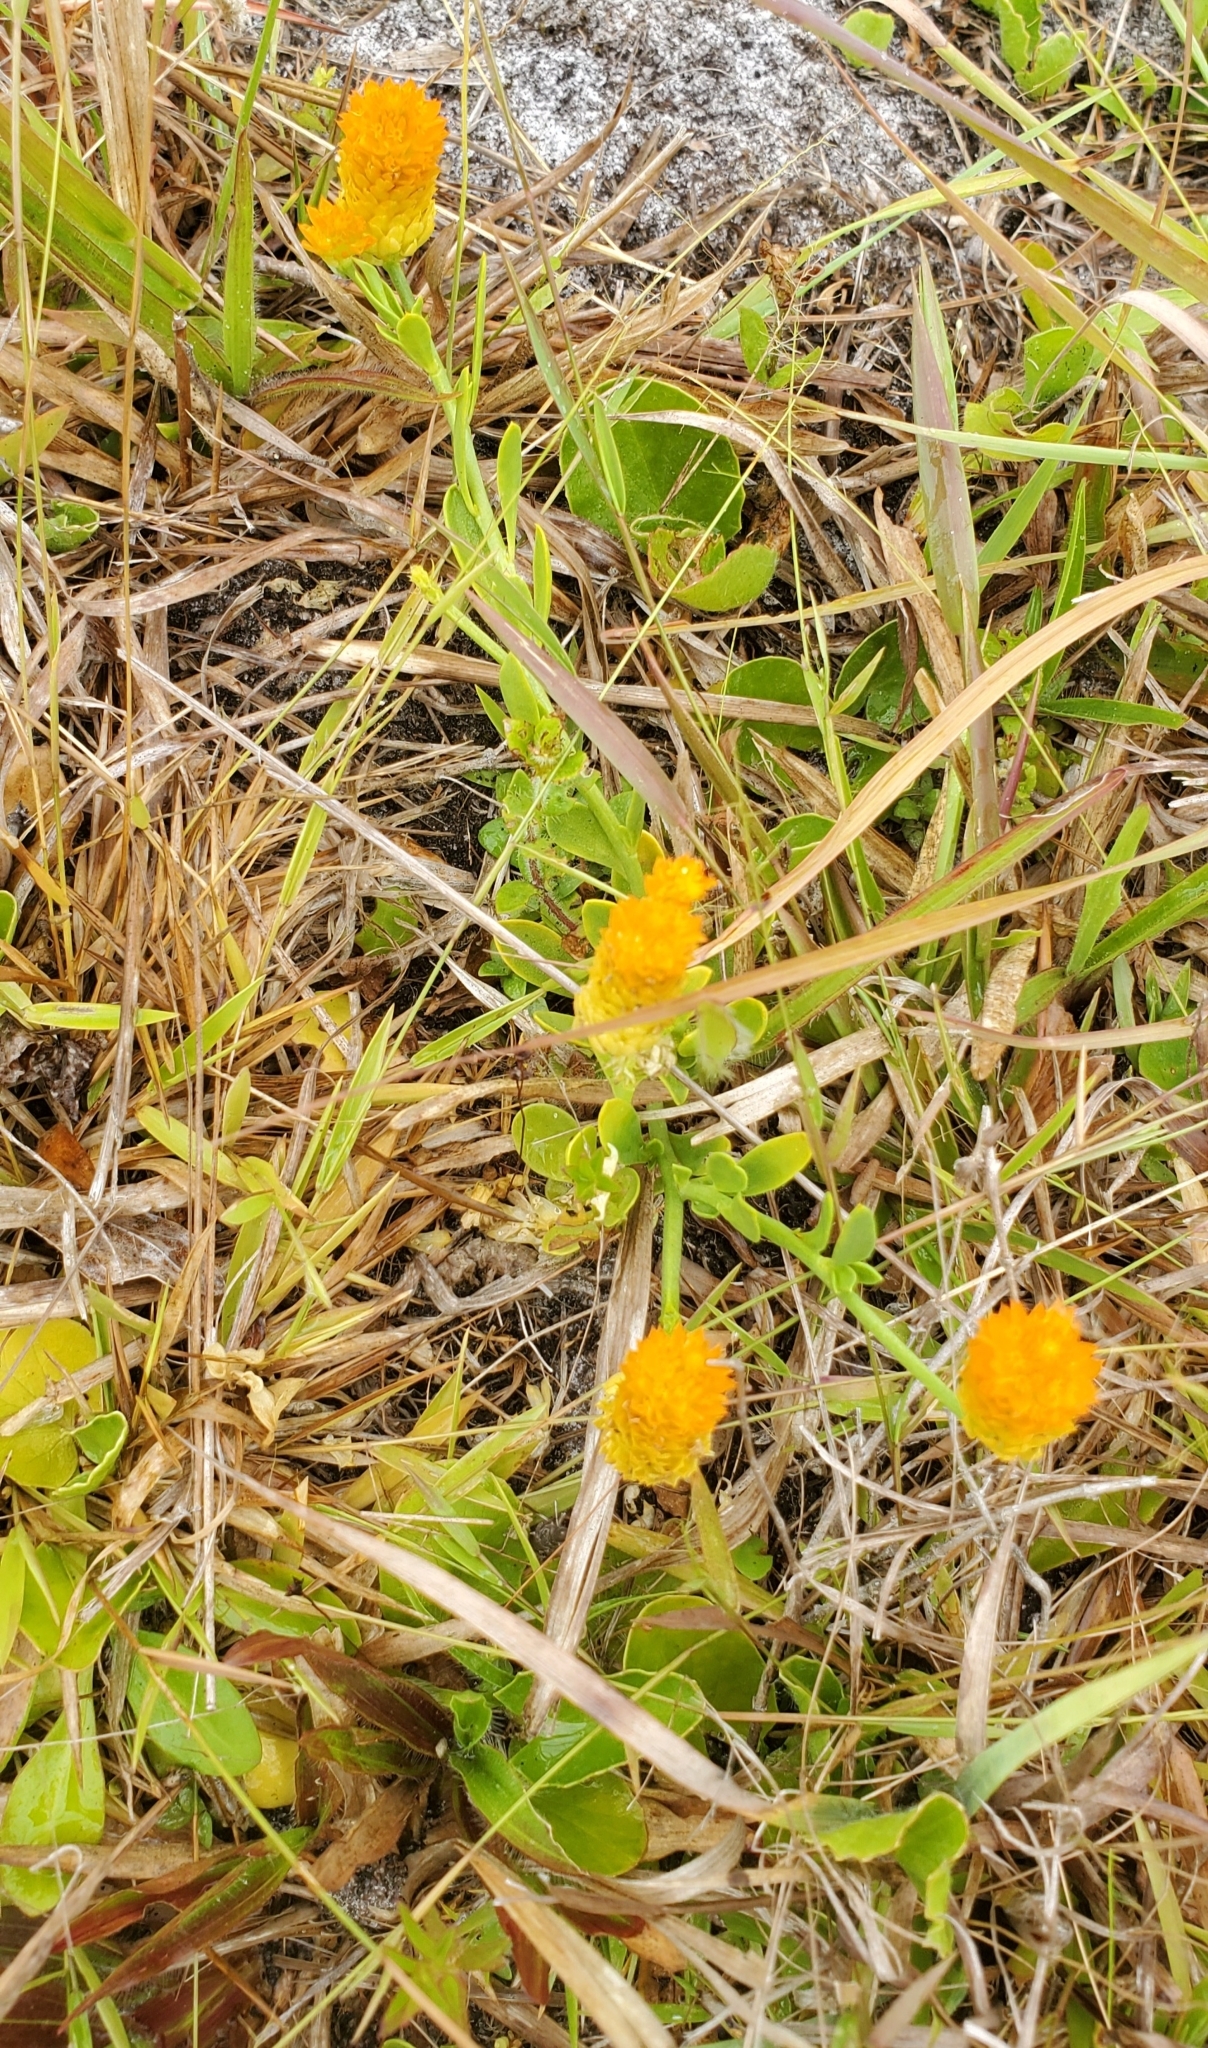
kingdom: Plantae
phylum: Tracheophyta
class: Magnoliopsida
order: Fabales
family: Polygalaceae
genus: Polygala
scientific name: Polygala lutea
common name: Orange milkwort
